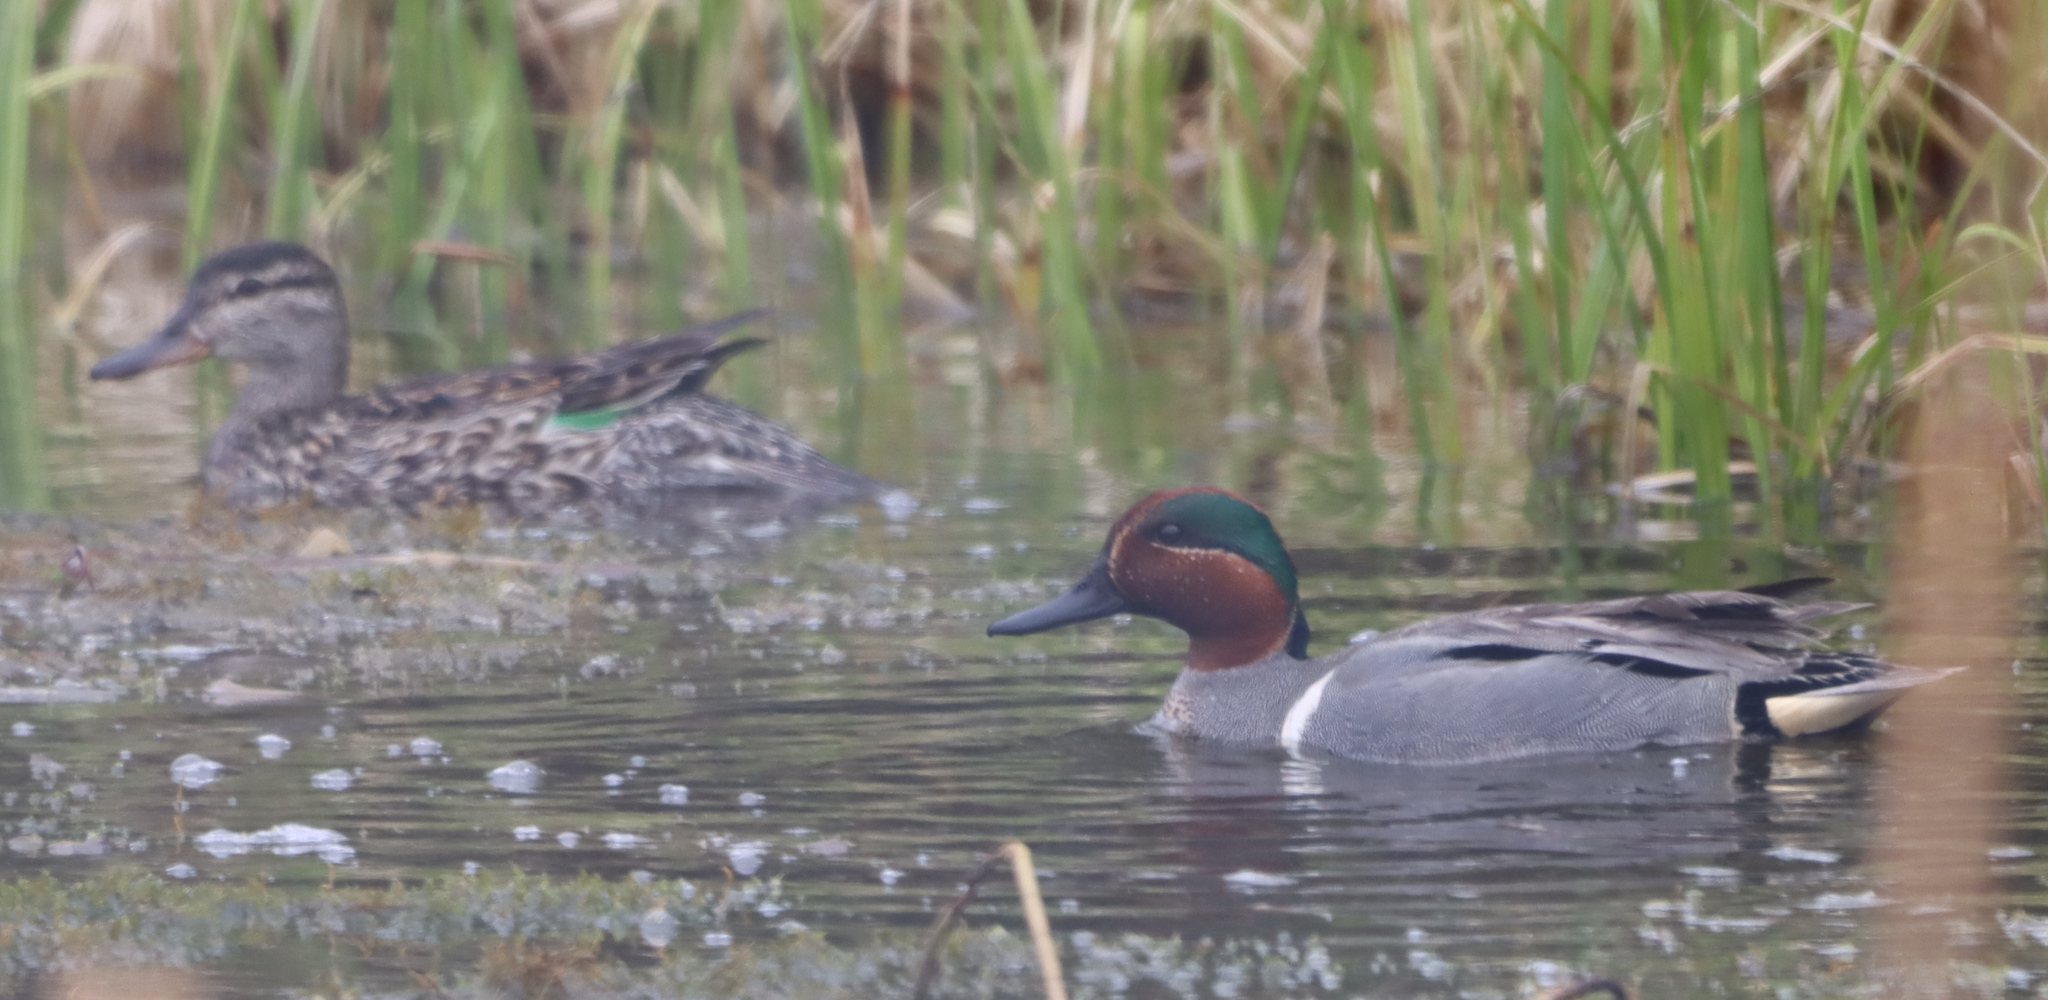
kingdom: Animalia
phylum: Chordata
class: Aves
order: Anseriformes
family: Anatidae
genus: Anas
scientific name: Anas crecca
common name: Eurasian teal
